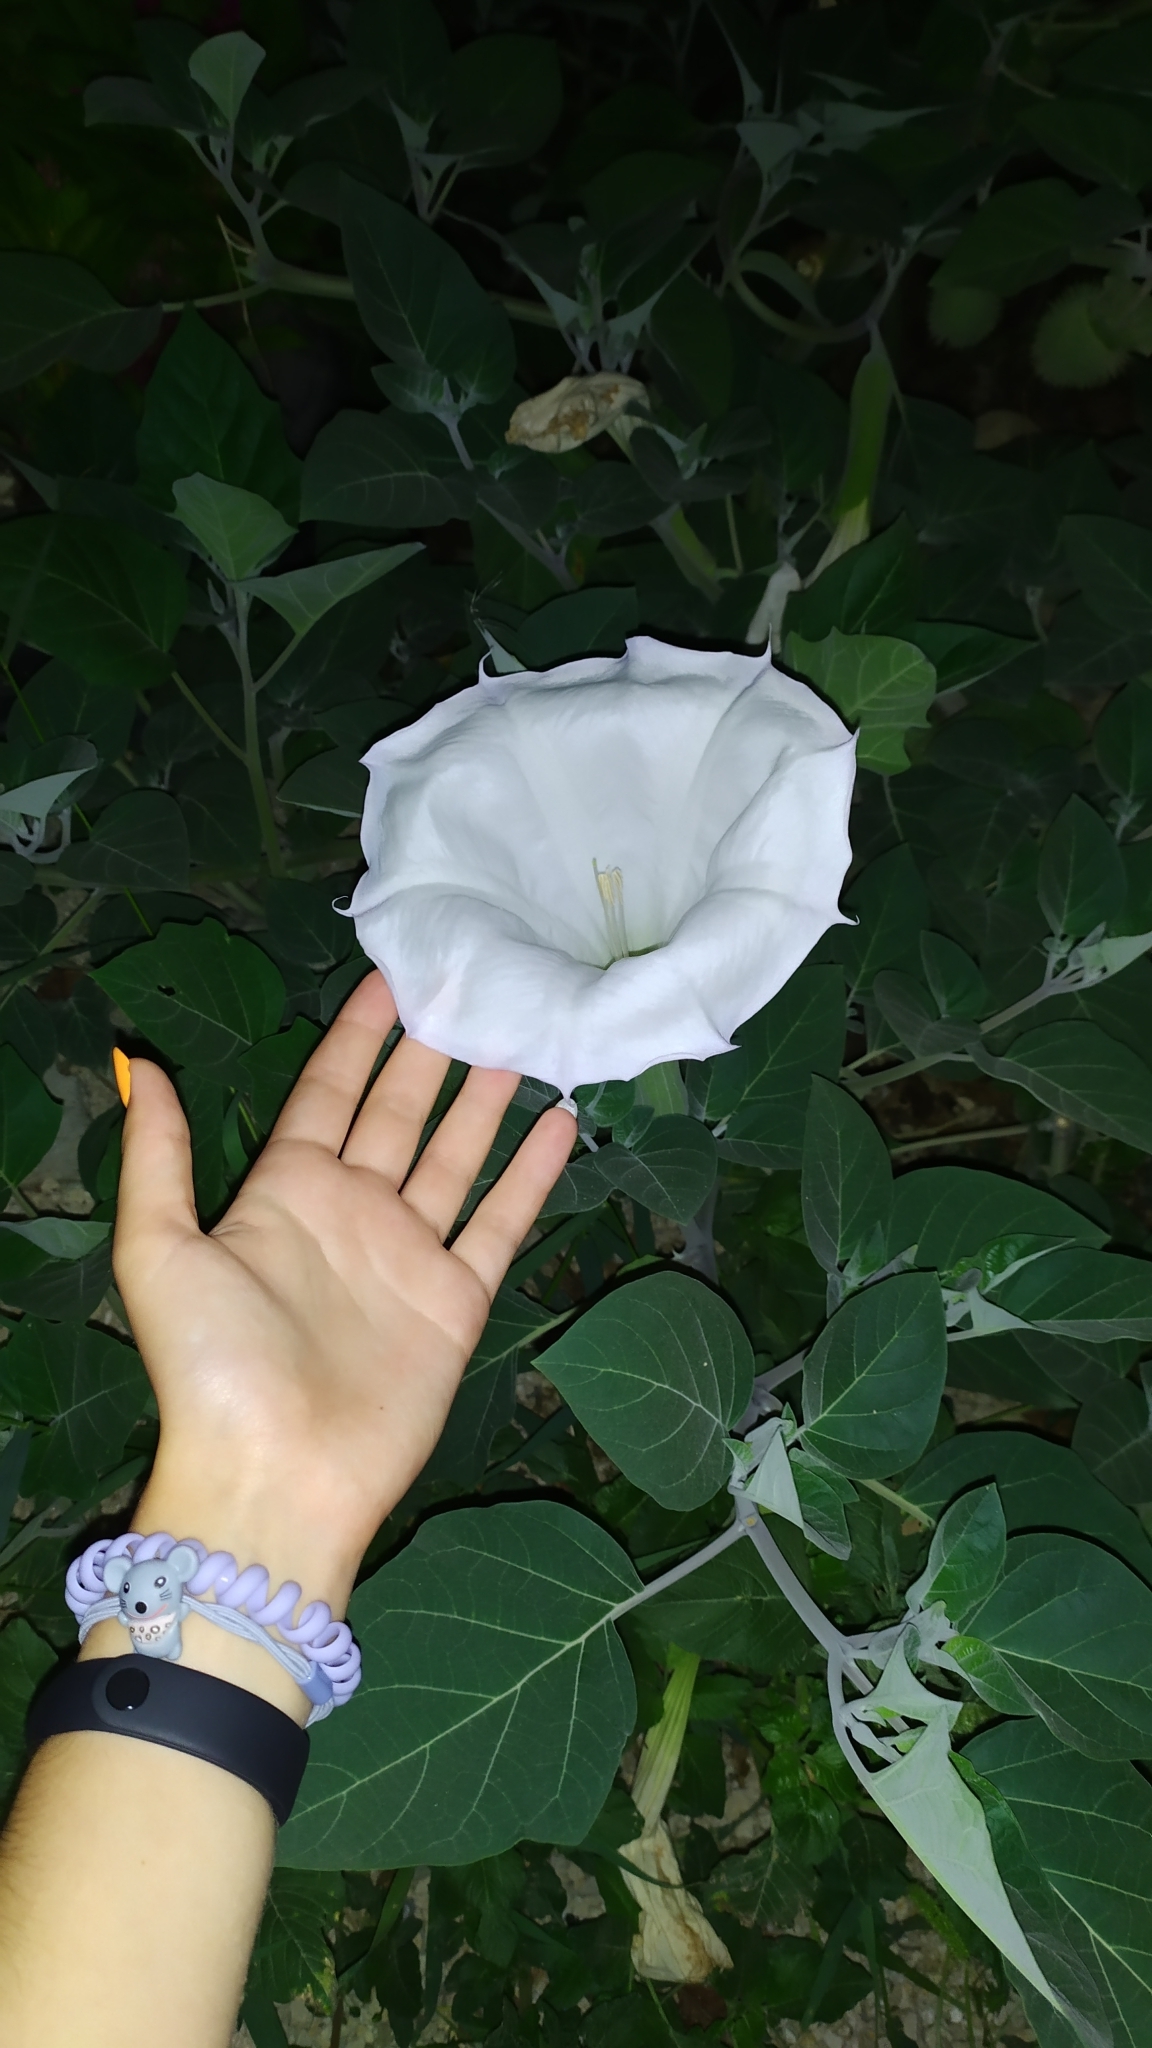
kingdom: Plantae
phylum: Tracheophyta
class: Magnoliopsida
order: Solanales
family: Solanaceae
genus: Datura
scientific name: Datura innoxia
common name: Downy thorn-apple
